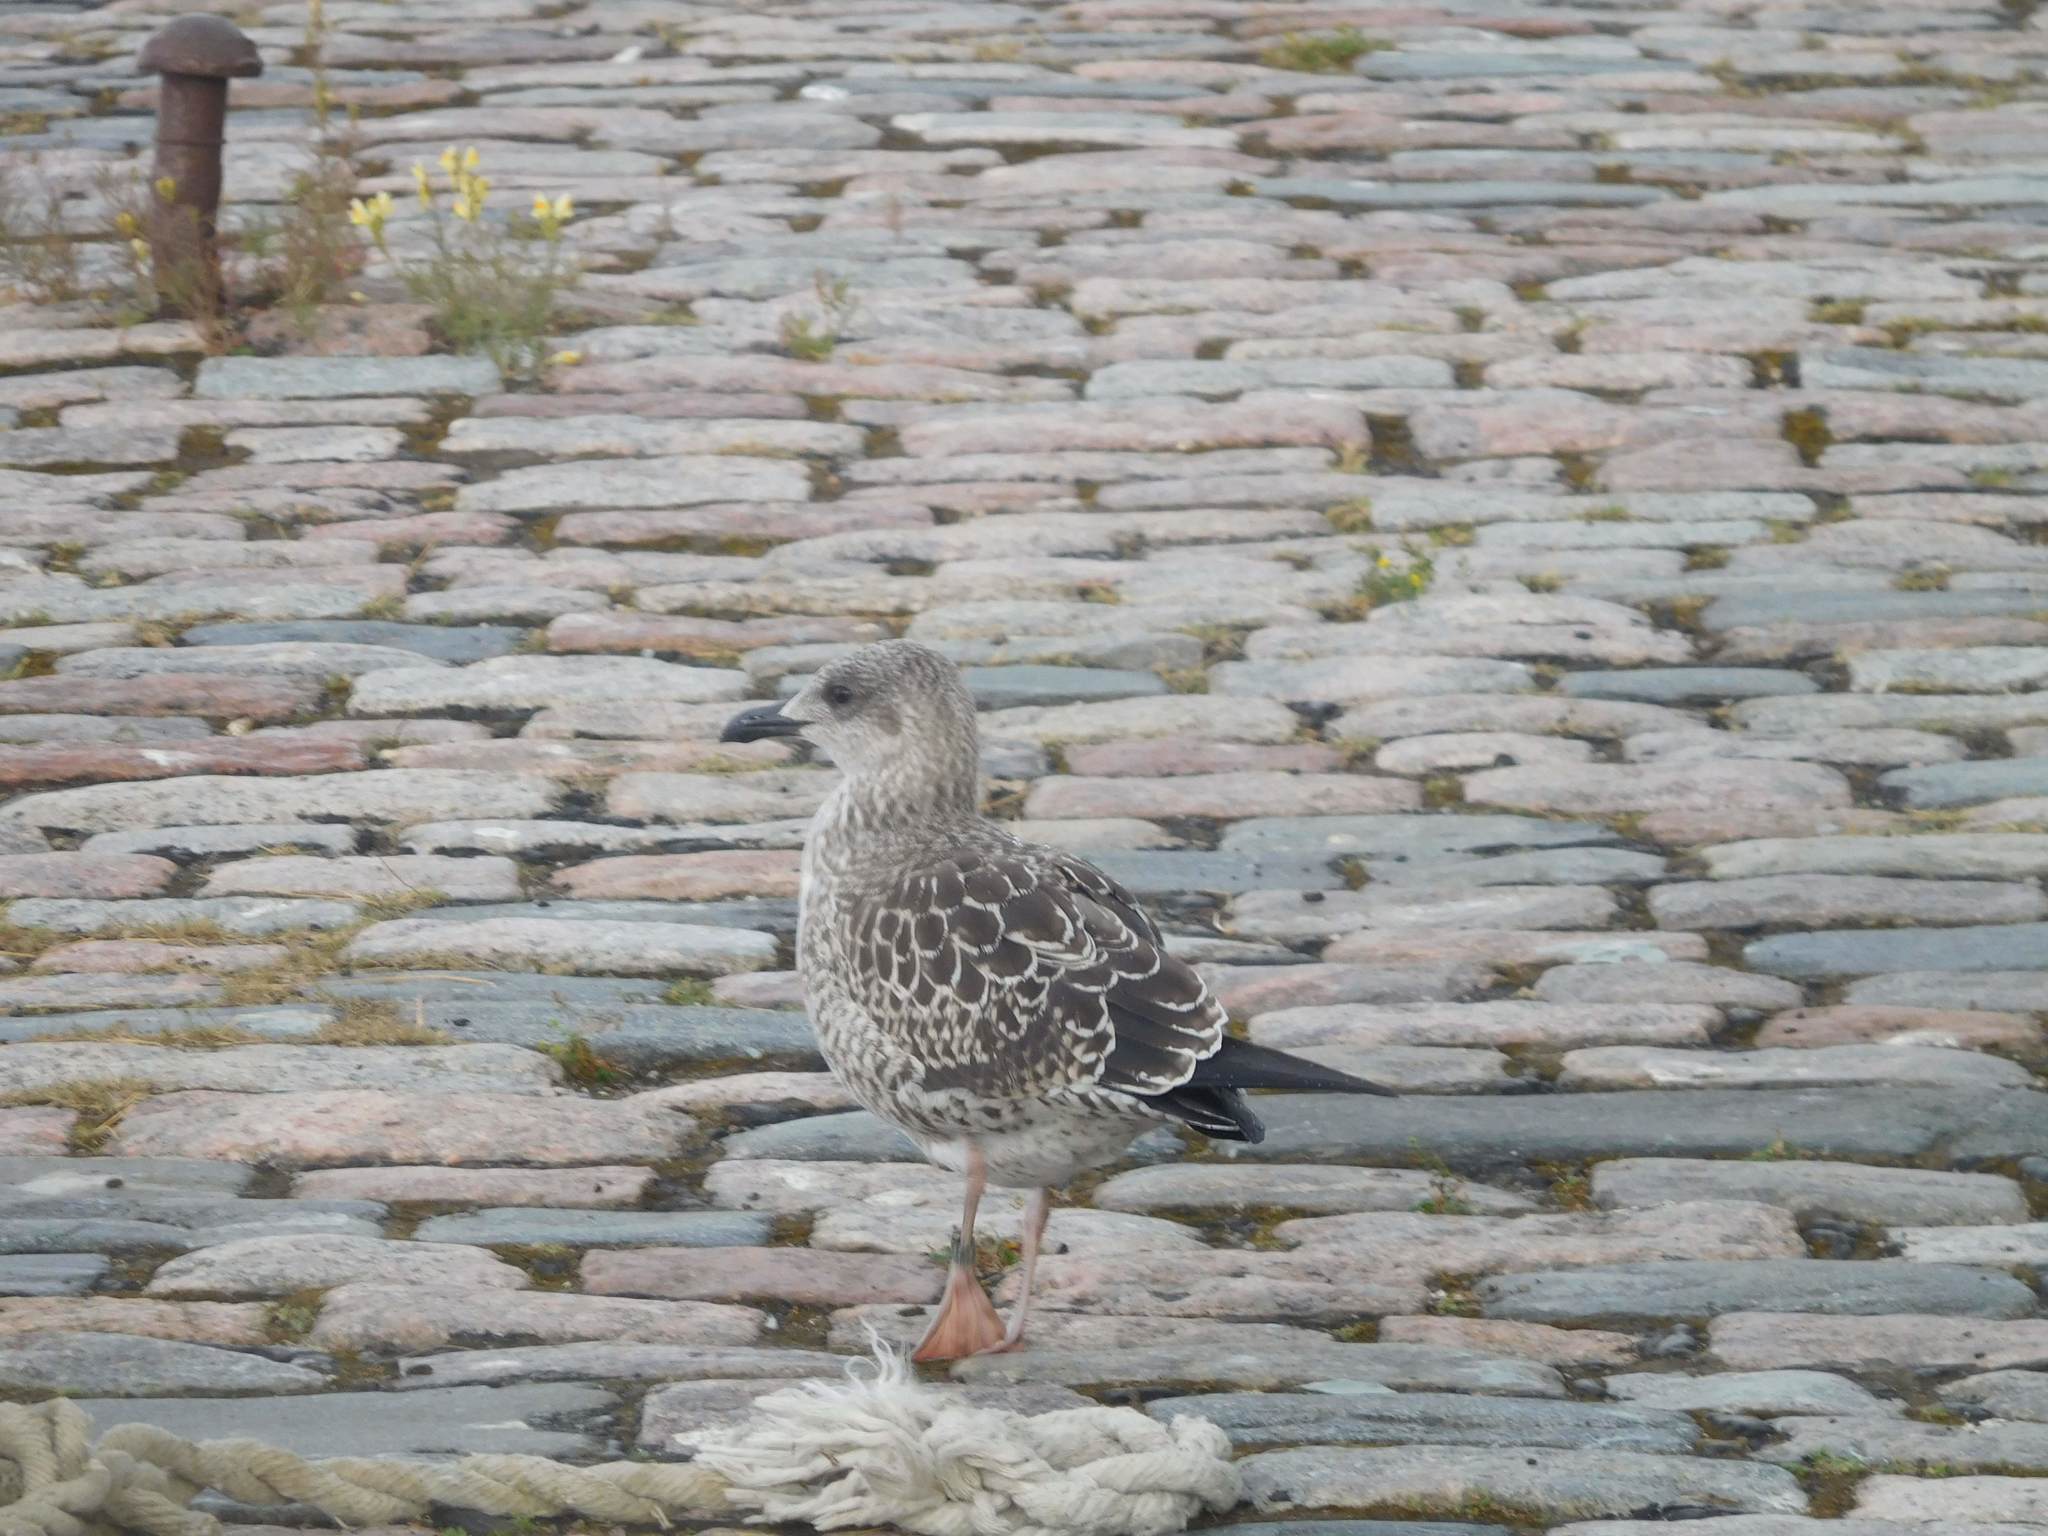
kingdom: Animalia
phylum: Chordata
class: Aves
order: Charadriiformes
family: Laridae
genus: Larus
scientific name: Larus fuscus
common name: Lesser black-backed gull
